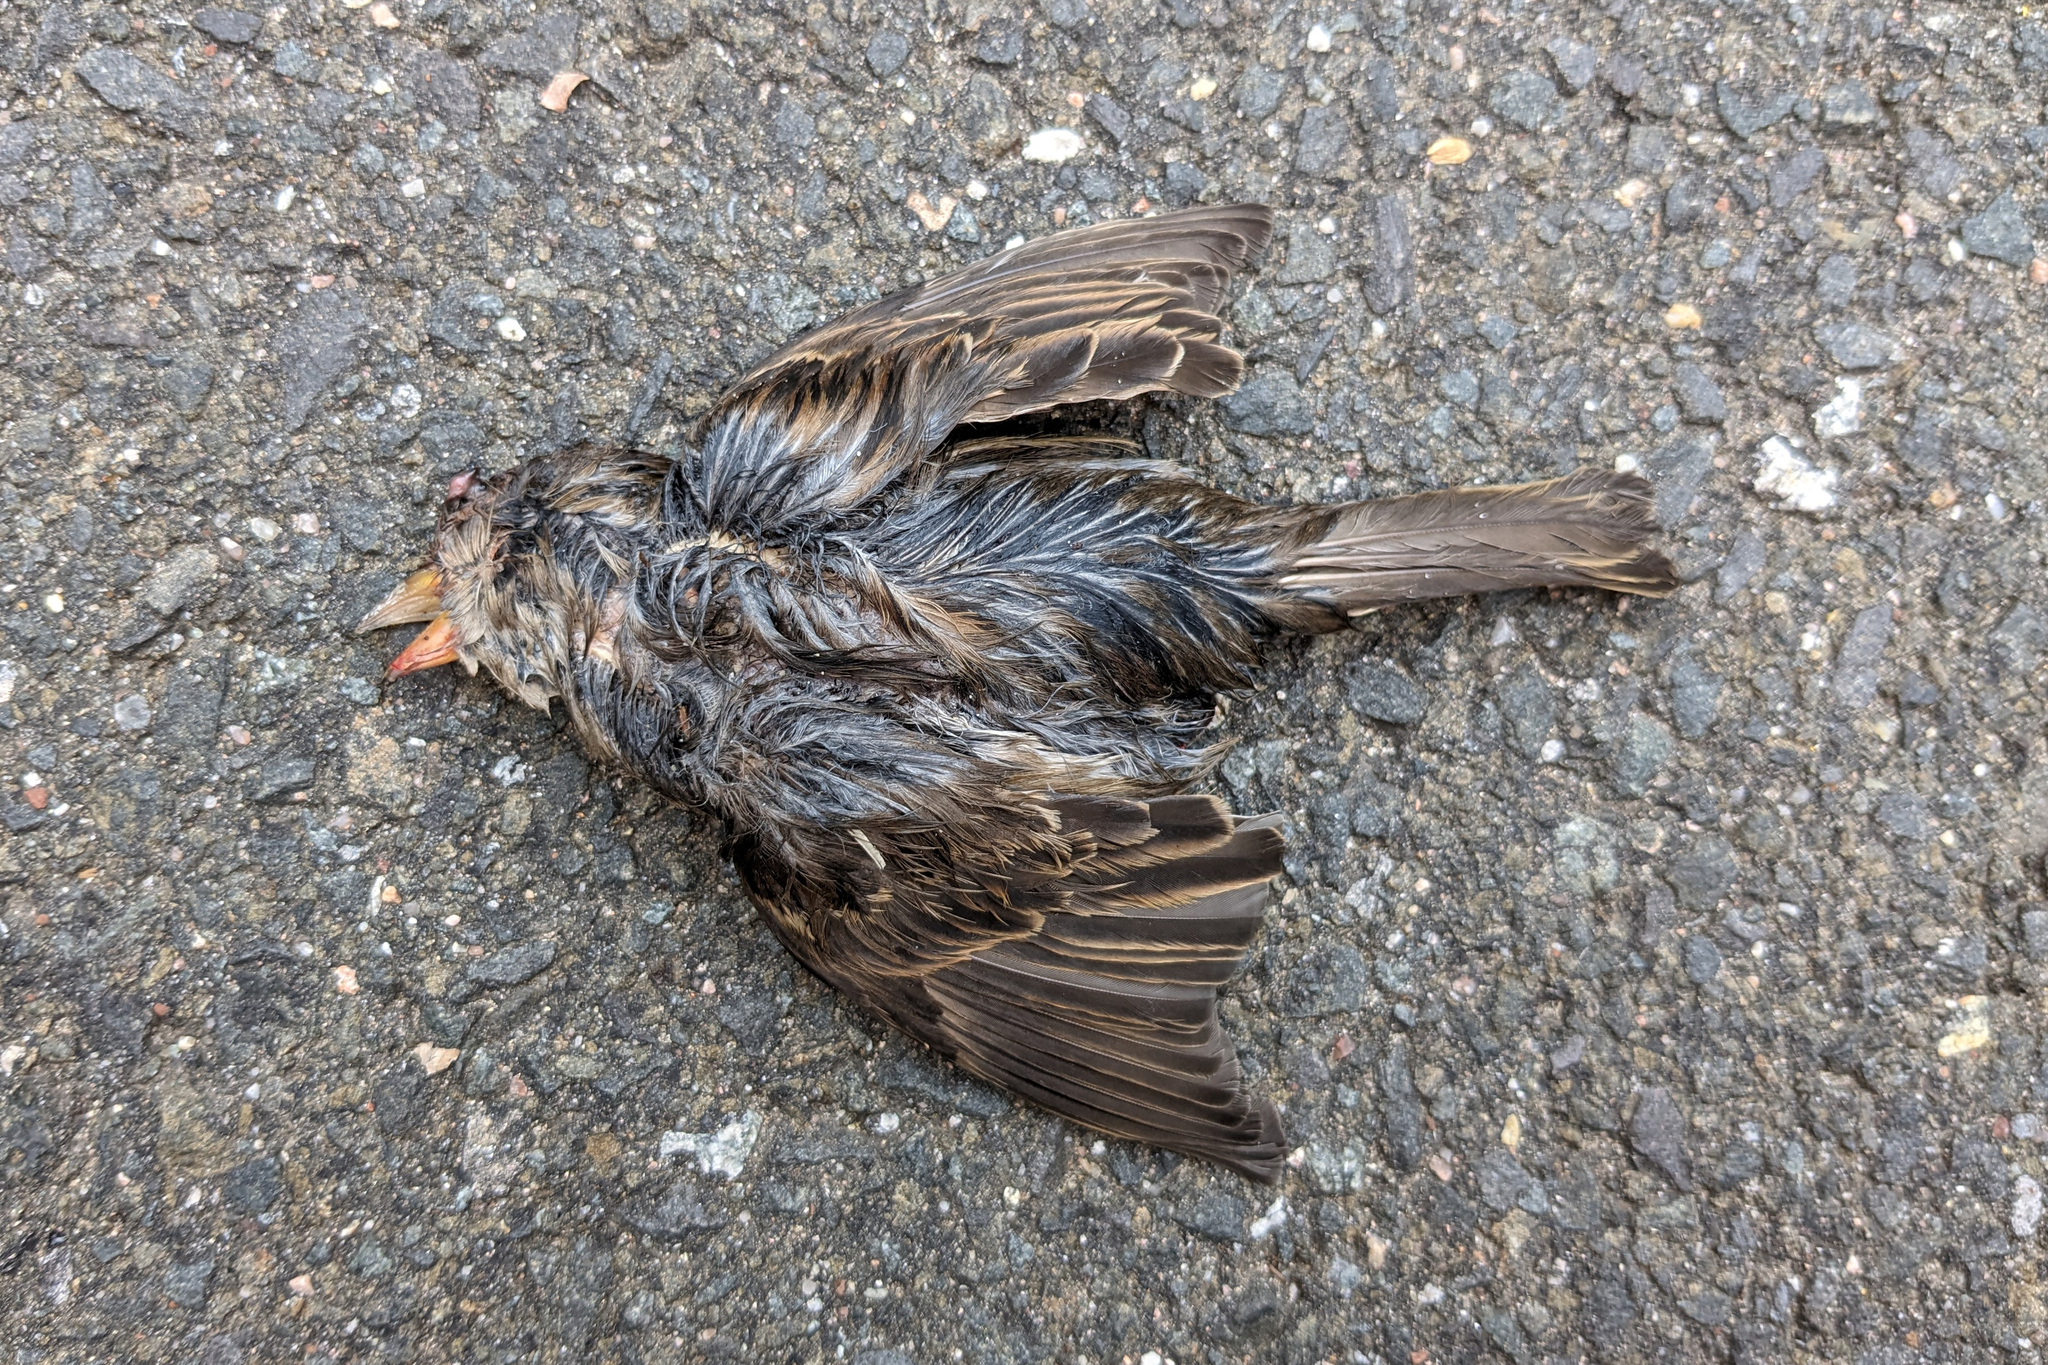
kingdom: Animalia
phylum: Chordata
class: Aves
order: Passeriformes
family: Passeridae
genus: Passer
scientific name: Passer domesticus
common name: House sparrow
